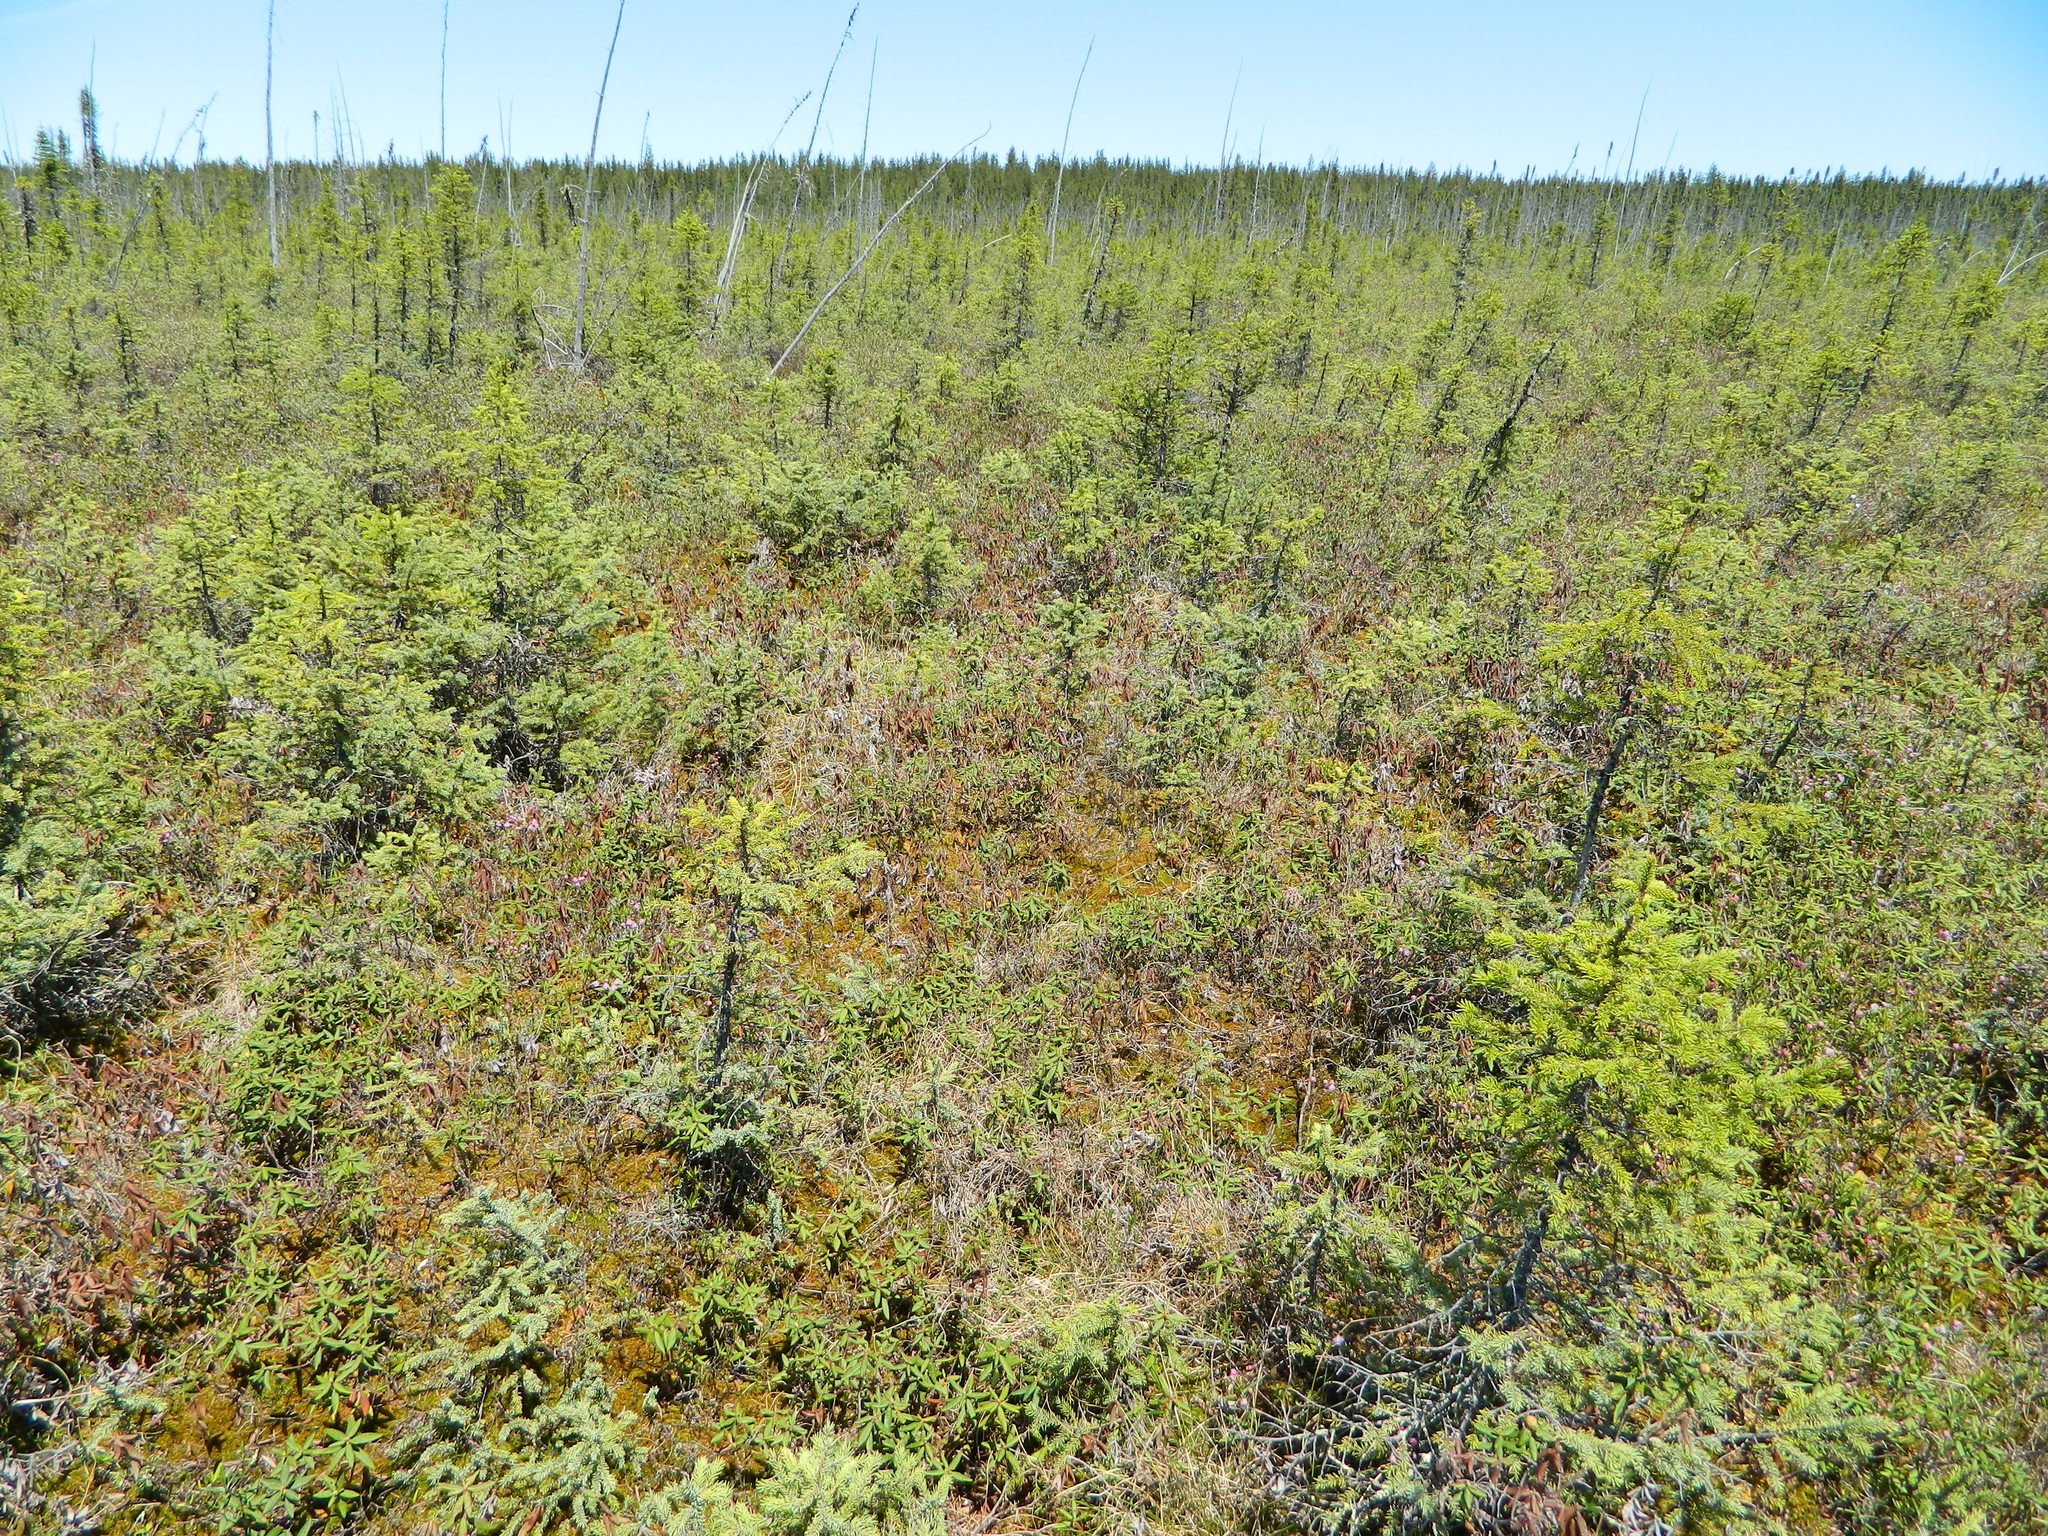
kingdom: Plantae
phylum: Tracheophyta
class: Pinopsida
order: Pinales
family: Pinaceae
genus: Picea
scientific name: Picea mariana
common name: Black spruce
